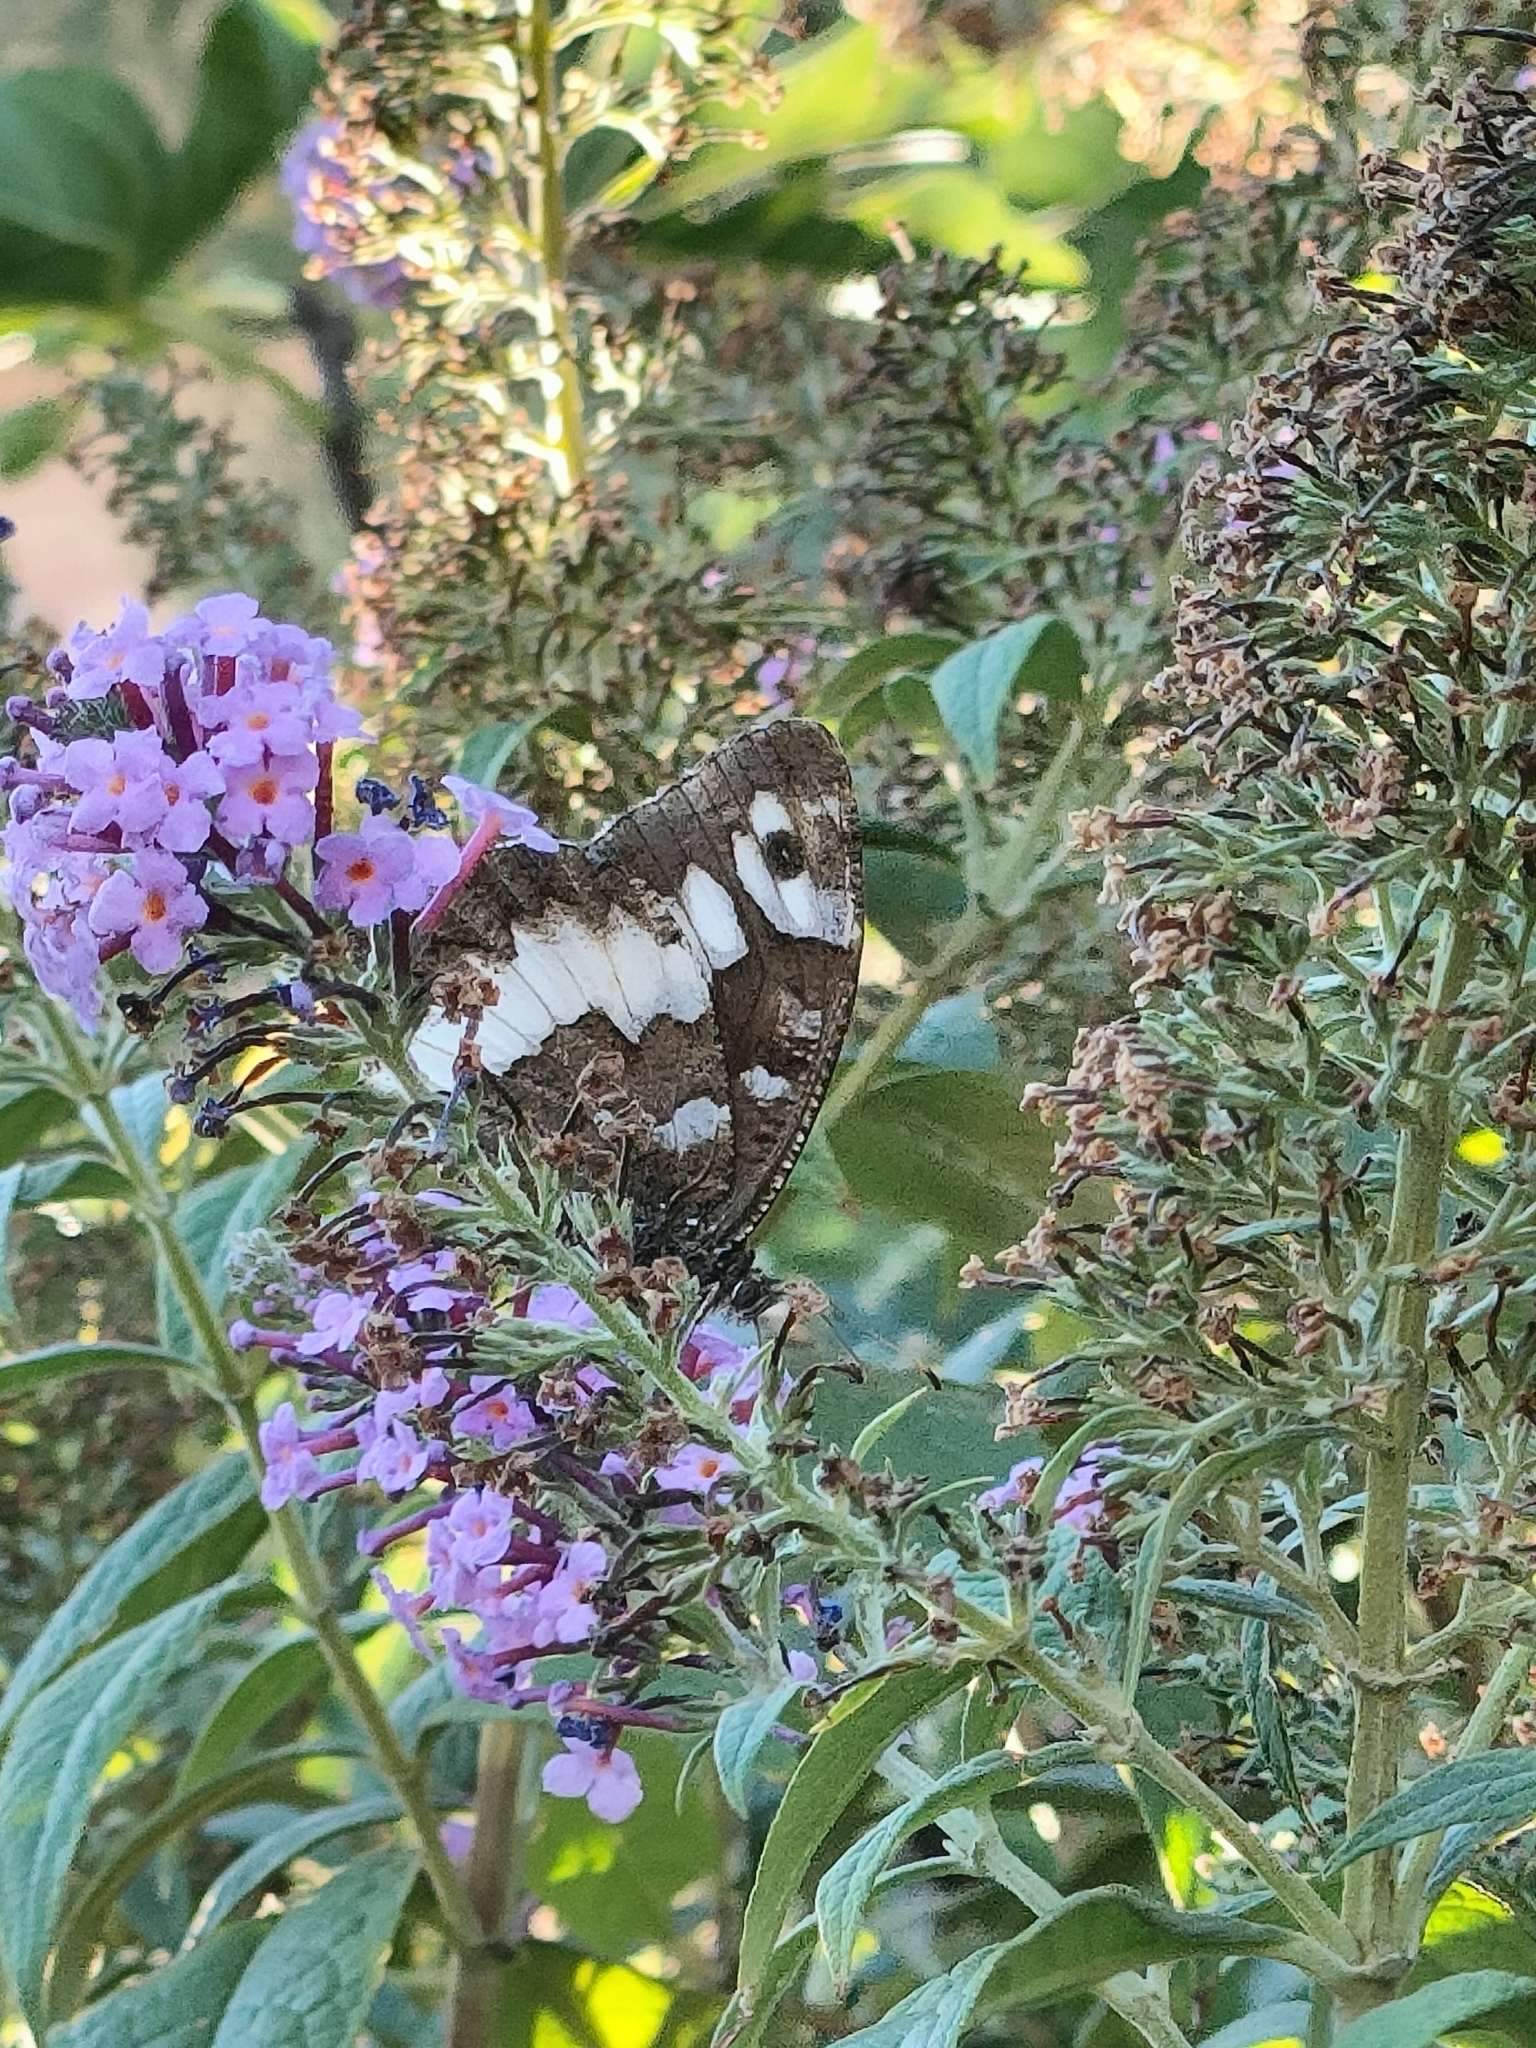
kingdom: Animalia
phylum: Arthropoda
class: Insecta
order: Lepidoptera
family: Lycaenidae
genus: Loweia
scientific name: Loweia tityrus
